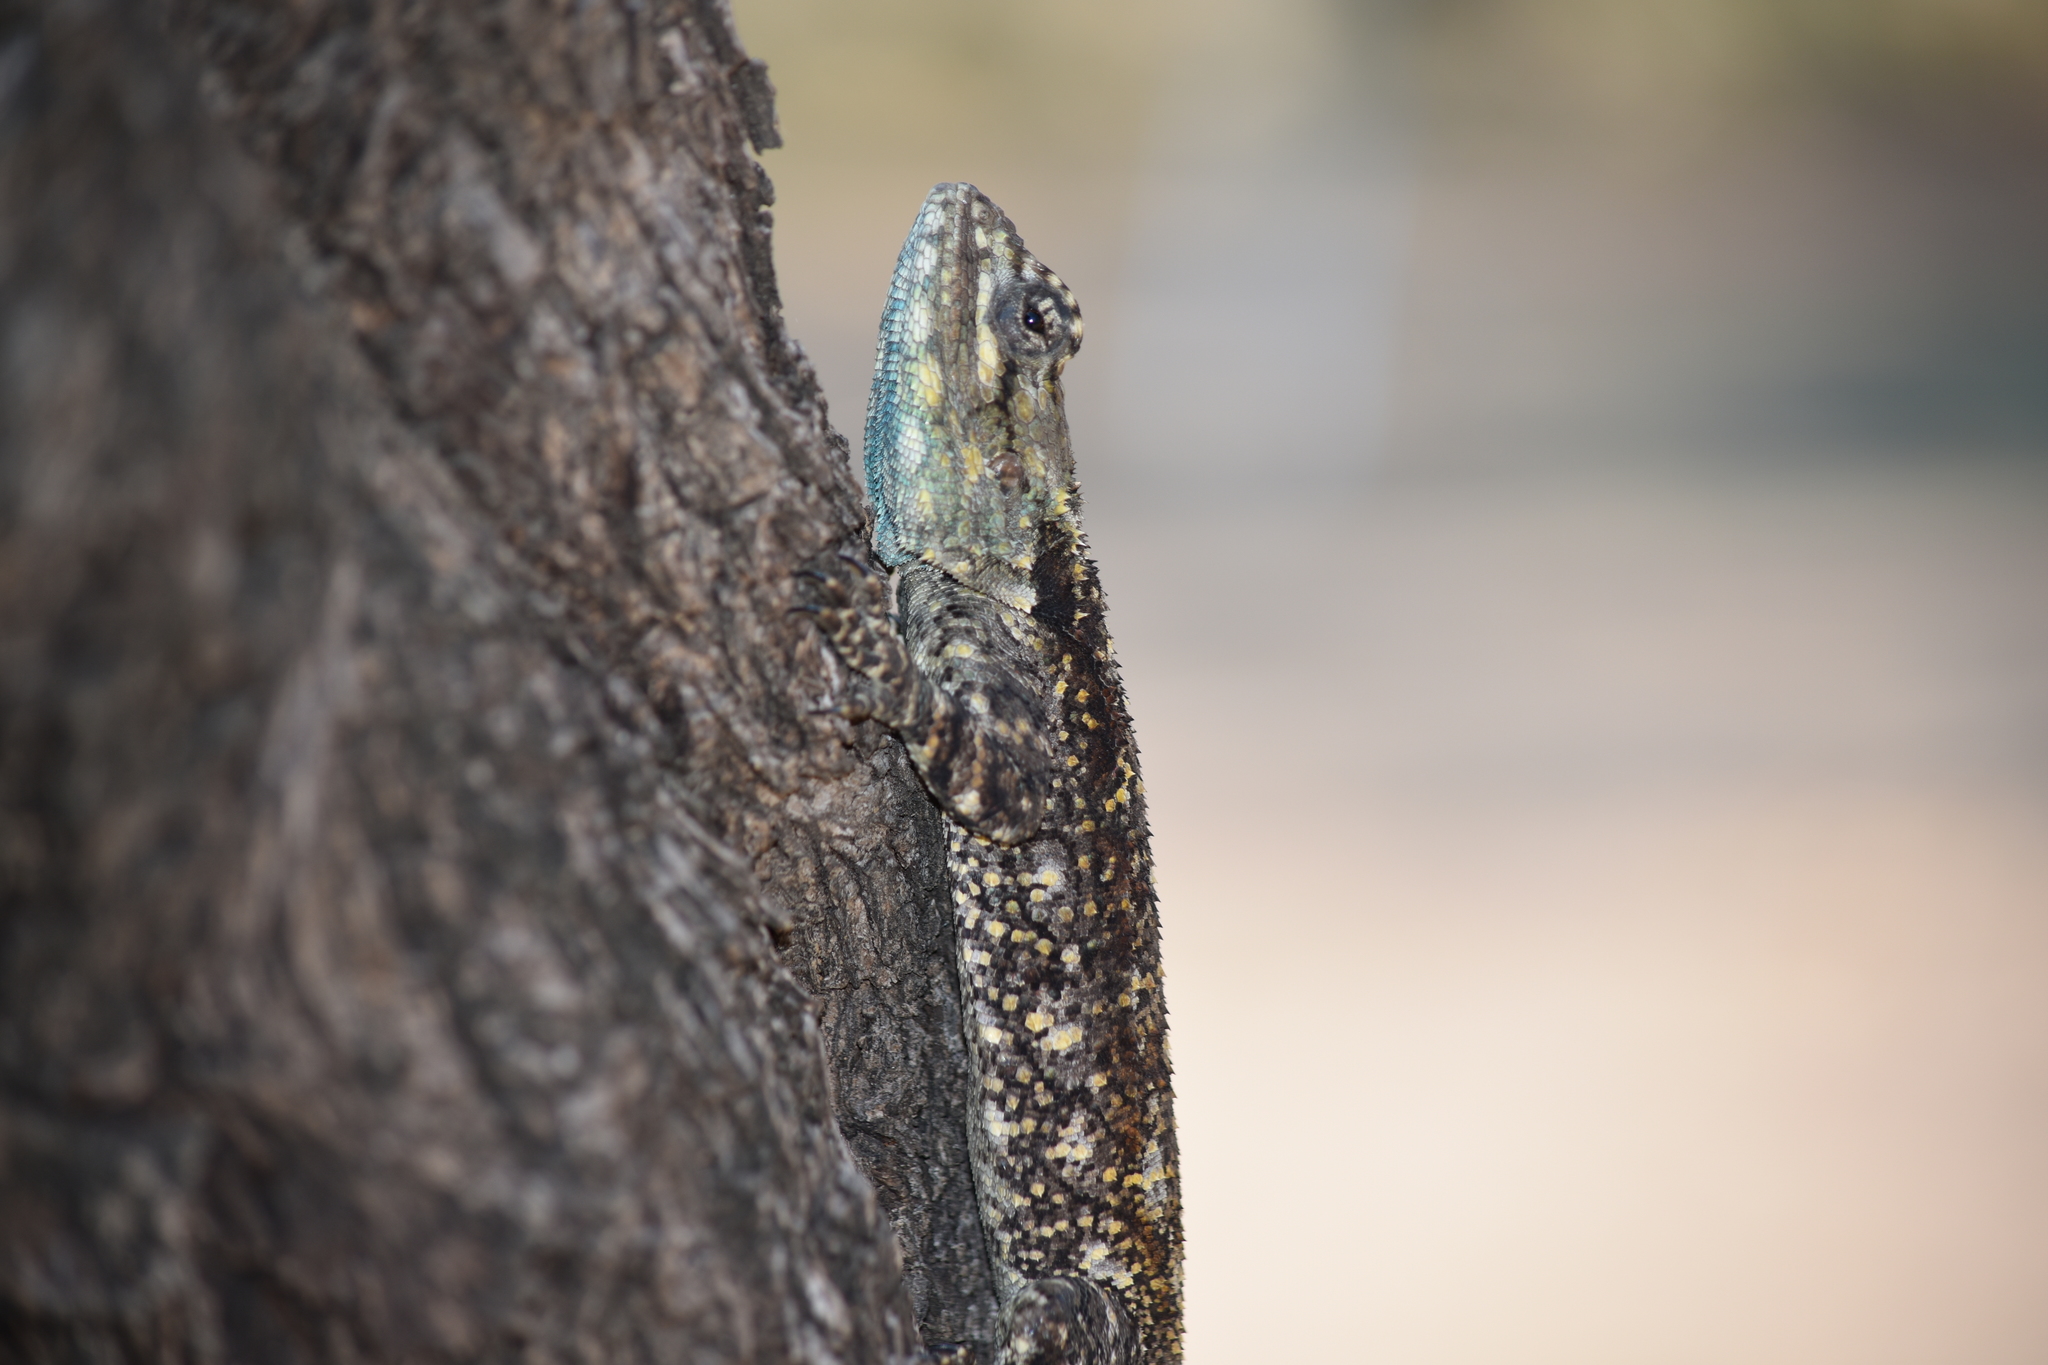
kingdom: Animalia
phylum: Chordata
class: Squamata
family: Agamidae
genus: Acanthocercus
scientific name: Acanthocercus atricollis
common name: Southern tree agama
